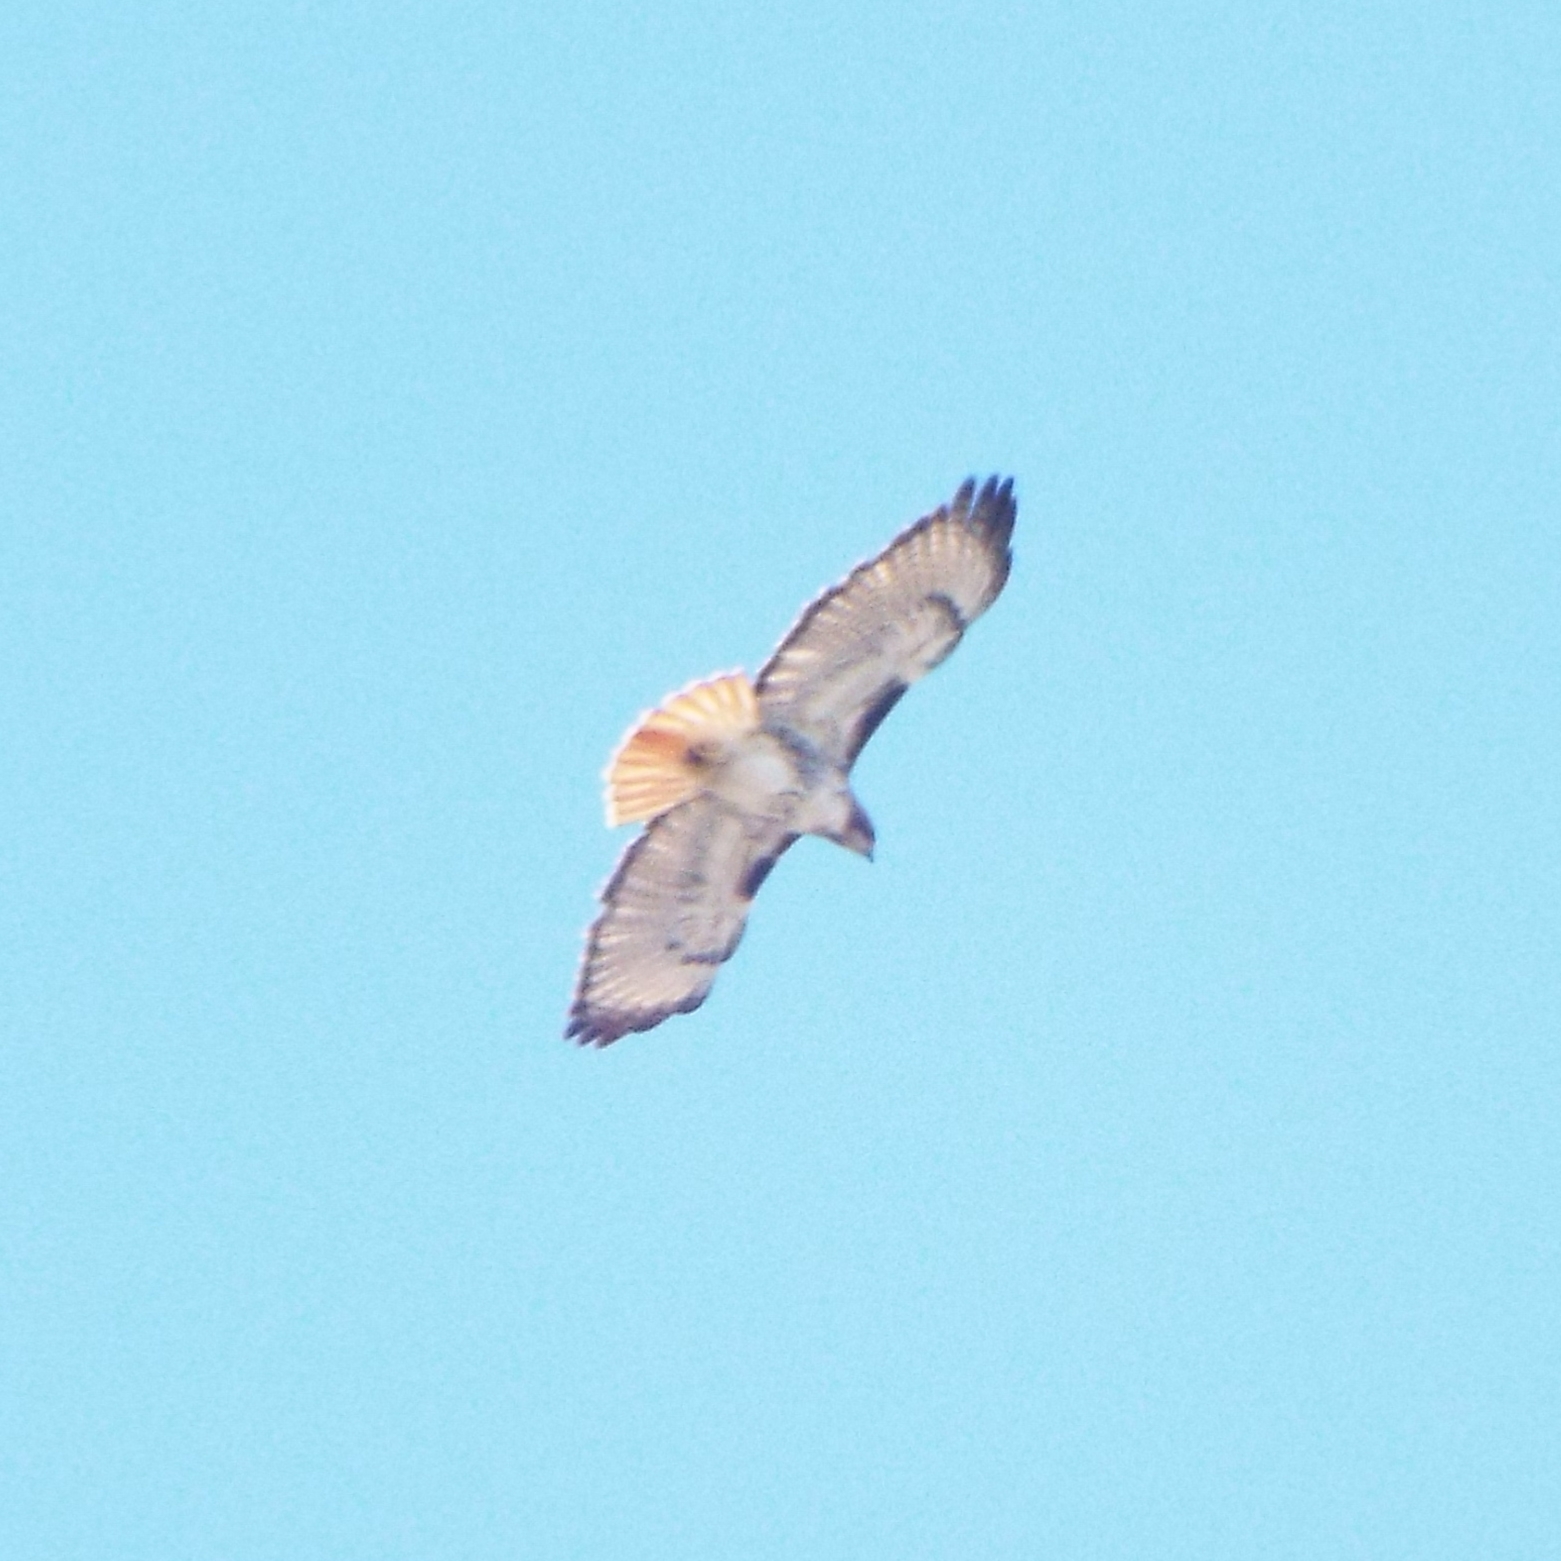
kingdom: Animalia
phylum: Chordata
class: Aves
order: Accipitriformes
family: Accipitridae
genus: Buteo
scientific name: Buteo jamaicensis
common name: Red-tailed hawk
